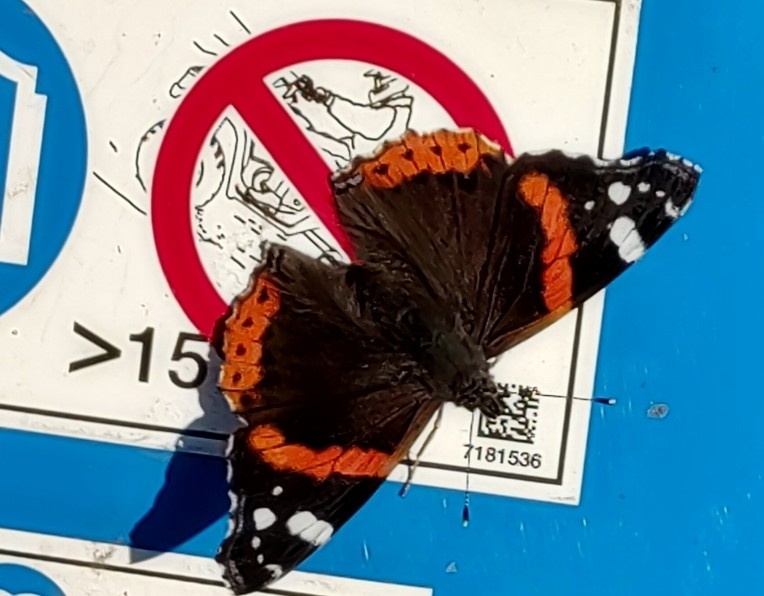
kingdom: Animalia
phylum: Arthropoda
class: Insecta
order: Lepidoptera
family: Nymphalidae
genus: Vanessa
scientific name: Vanessa atalanta
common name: Red admiral
